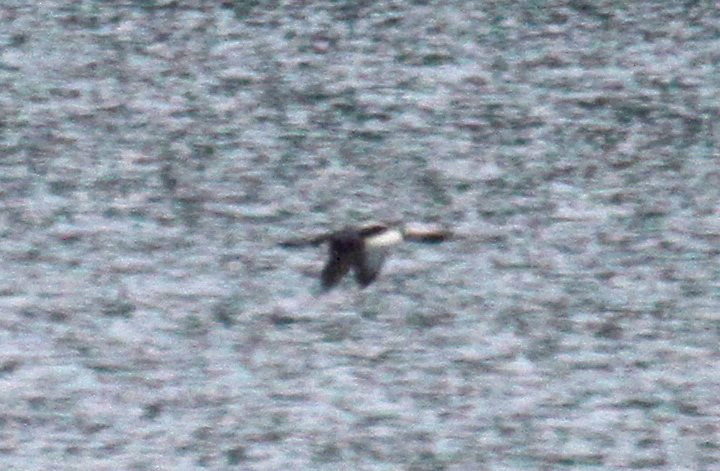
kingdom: Animalia
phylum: Chordata
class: Aves
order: Gaviiformes
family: Gaviidae
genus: Gavia
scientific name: Gavia pacifica
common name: Pacific loon
